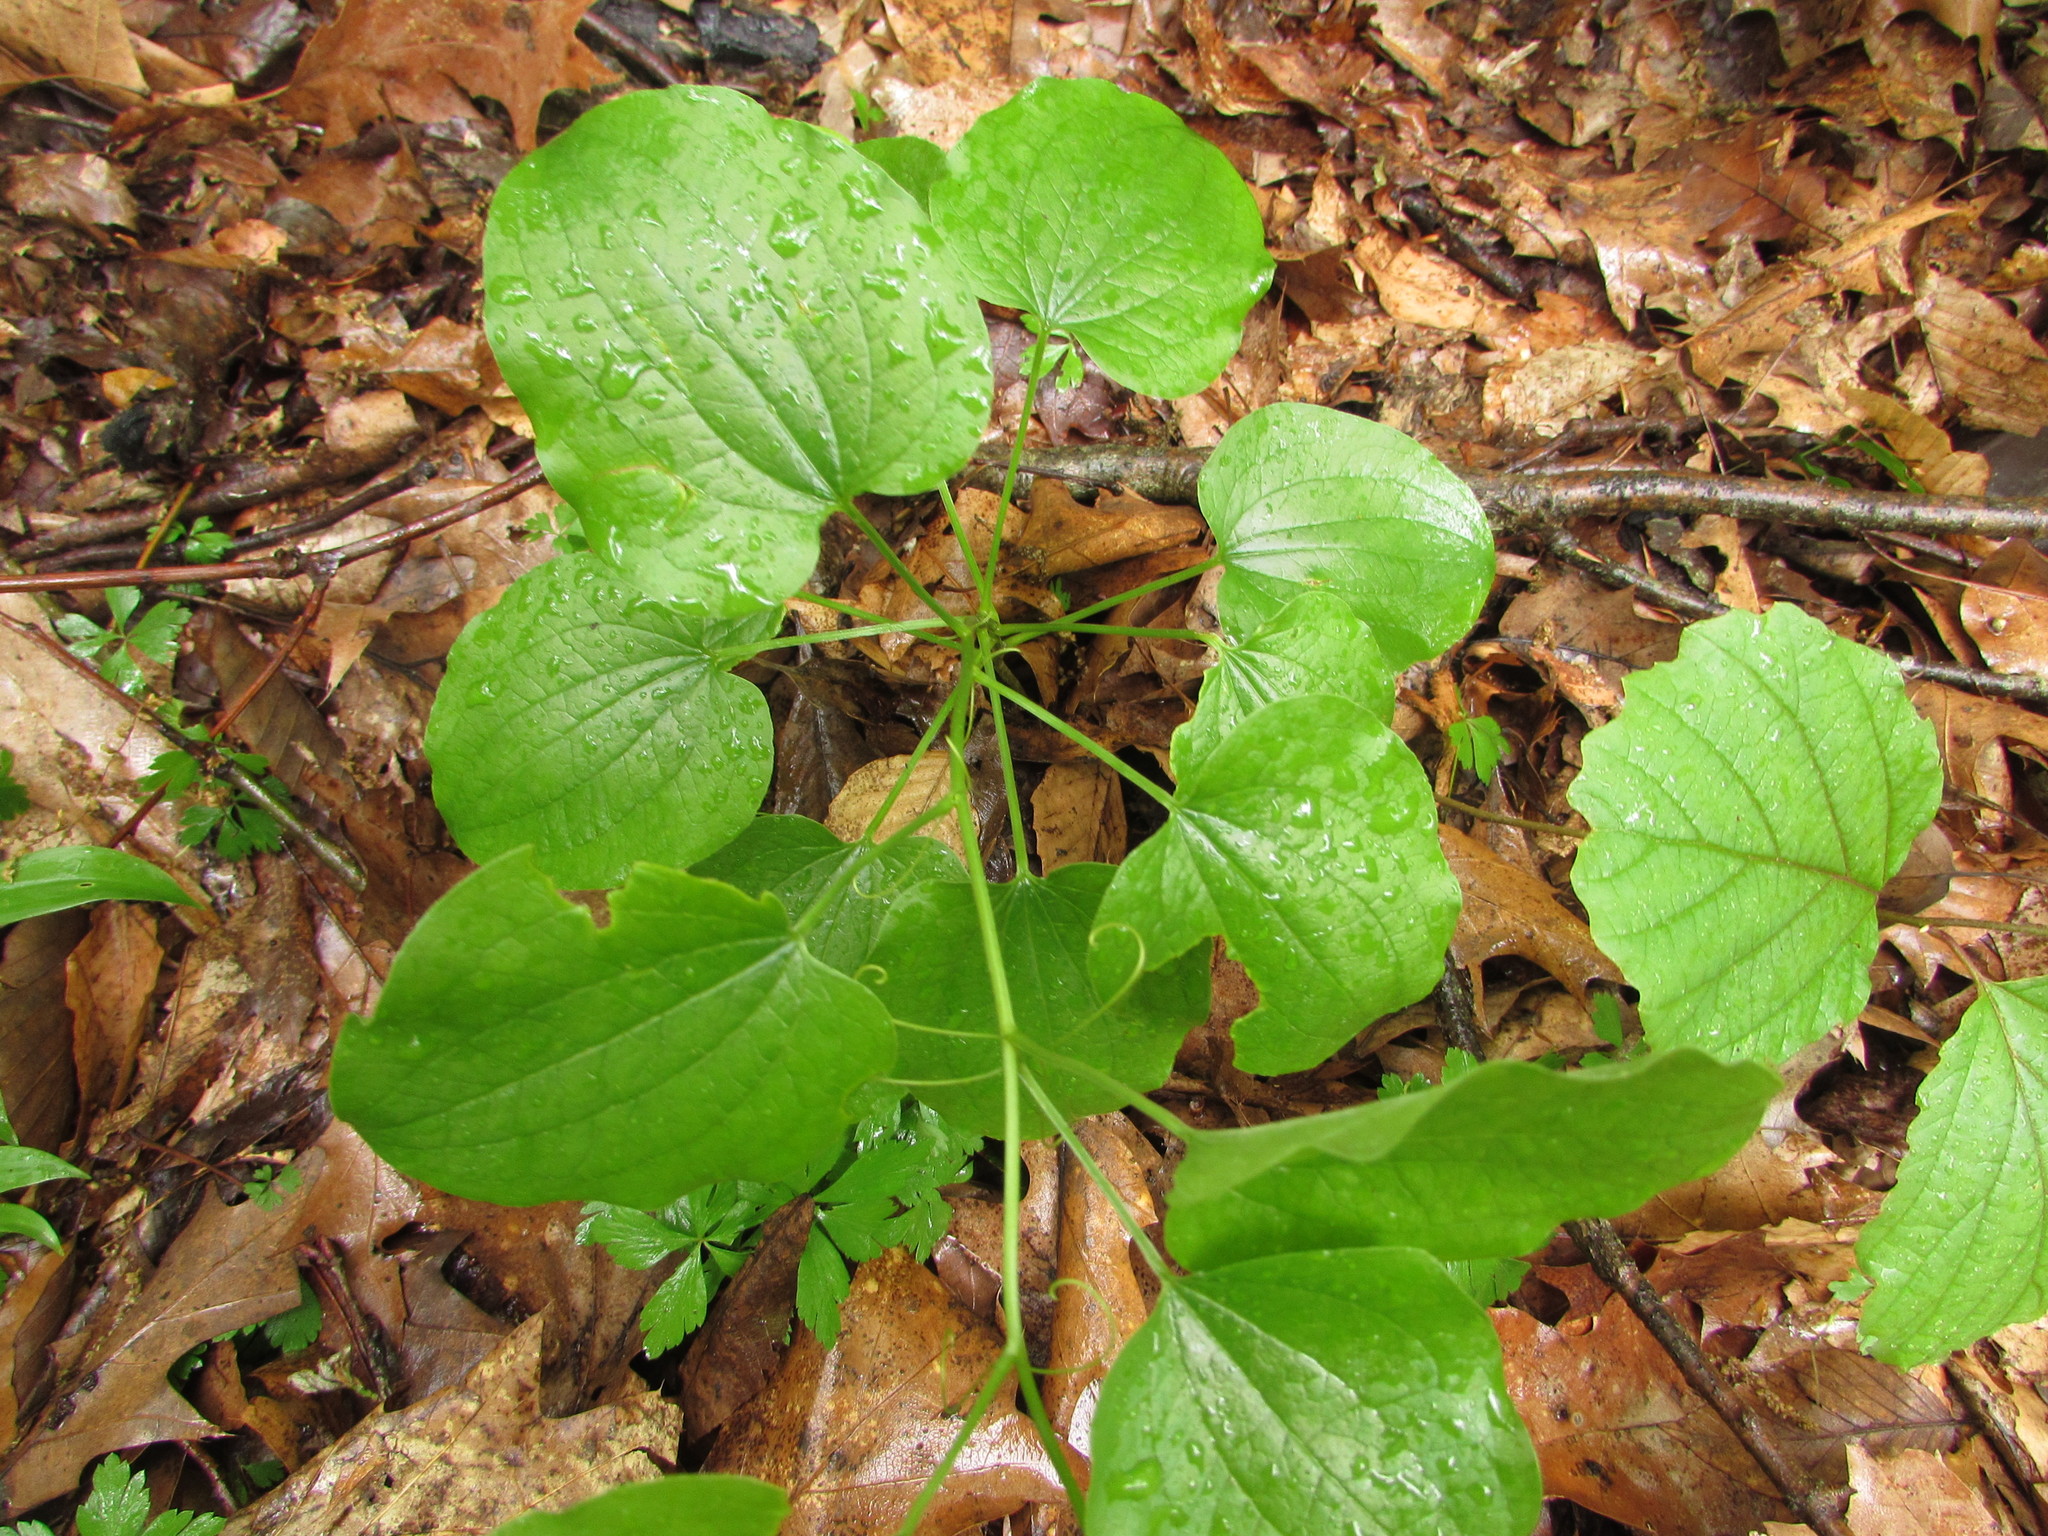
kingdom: Plantae
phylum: Tracheophyta
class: Liliopsida
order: Liliales
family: Smilacaceae
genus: Smilax
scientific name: Smilax herbacea
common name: Jacob's-ladder
